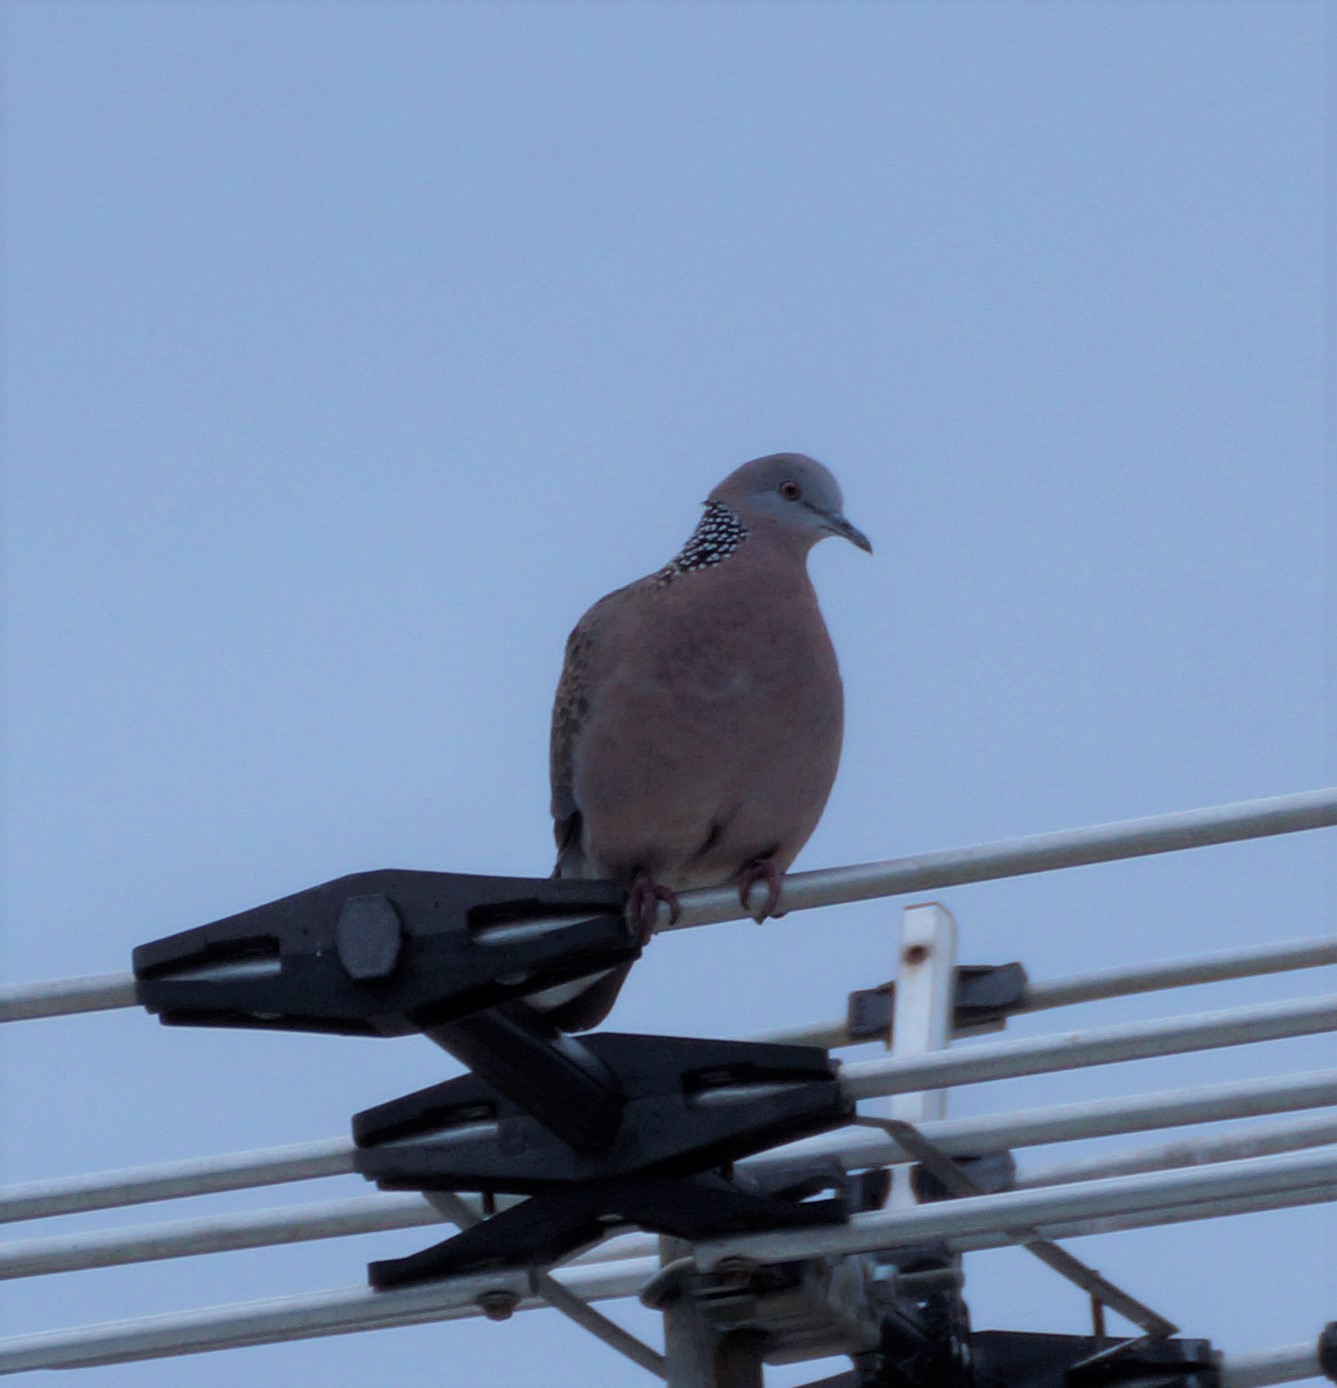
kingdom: Animalia
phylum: Chordata
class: Aves
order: Columbiformes
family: Columbidae
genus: Spilopelia
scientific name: Spilopelia chinensis
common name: Spotted dove
